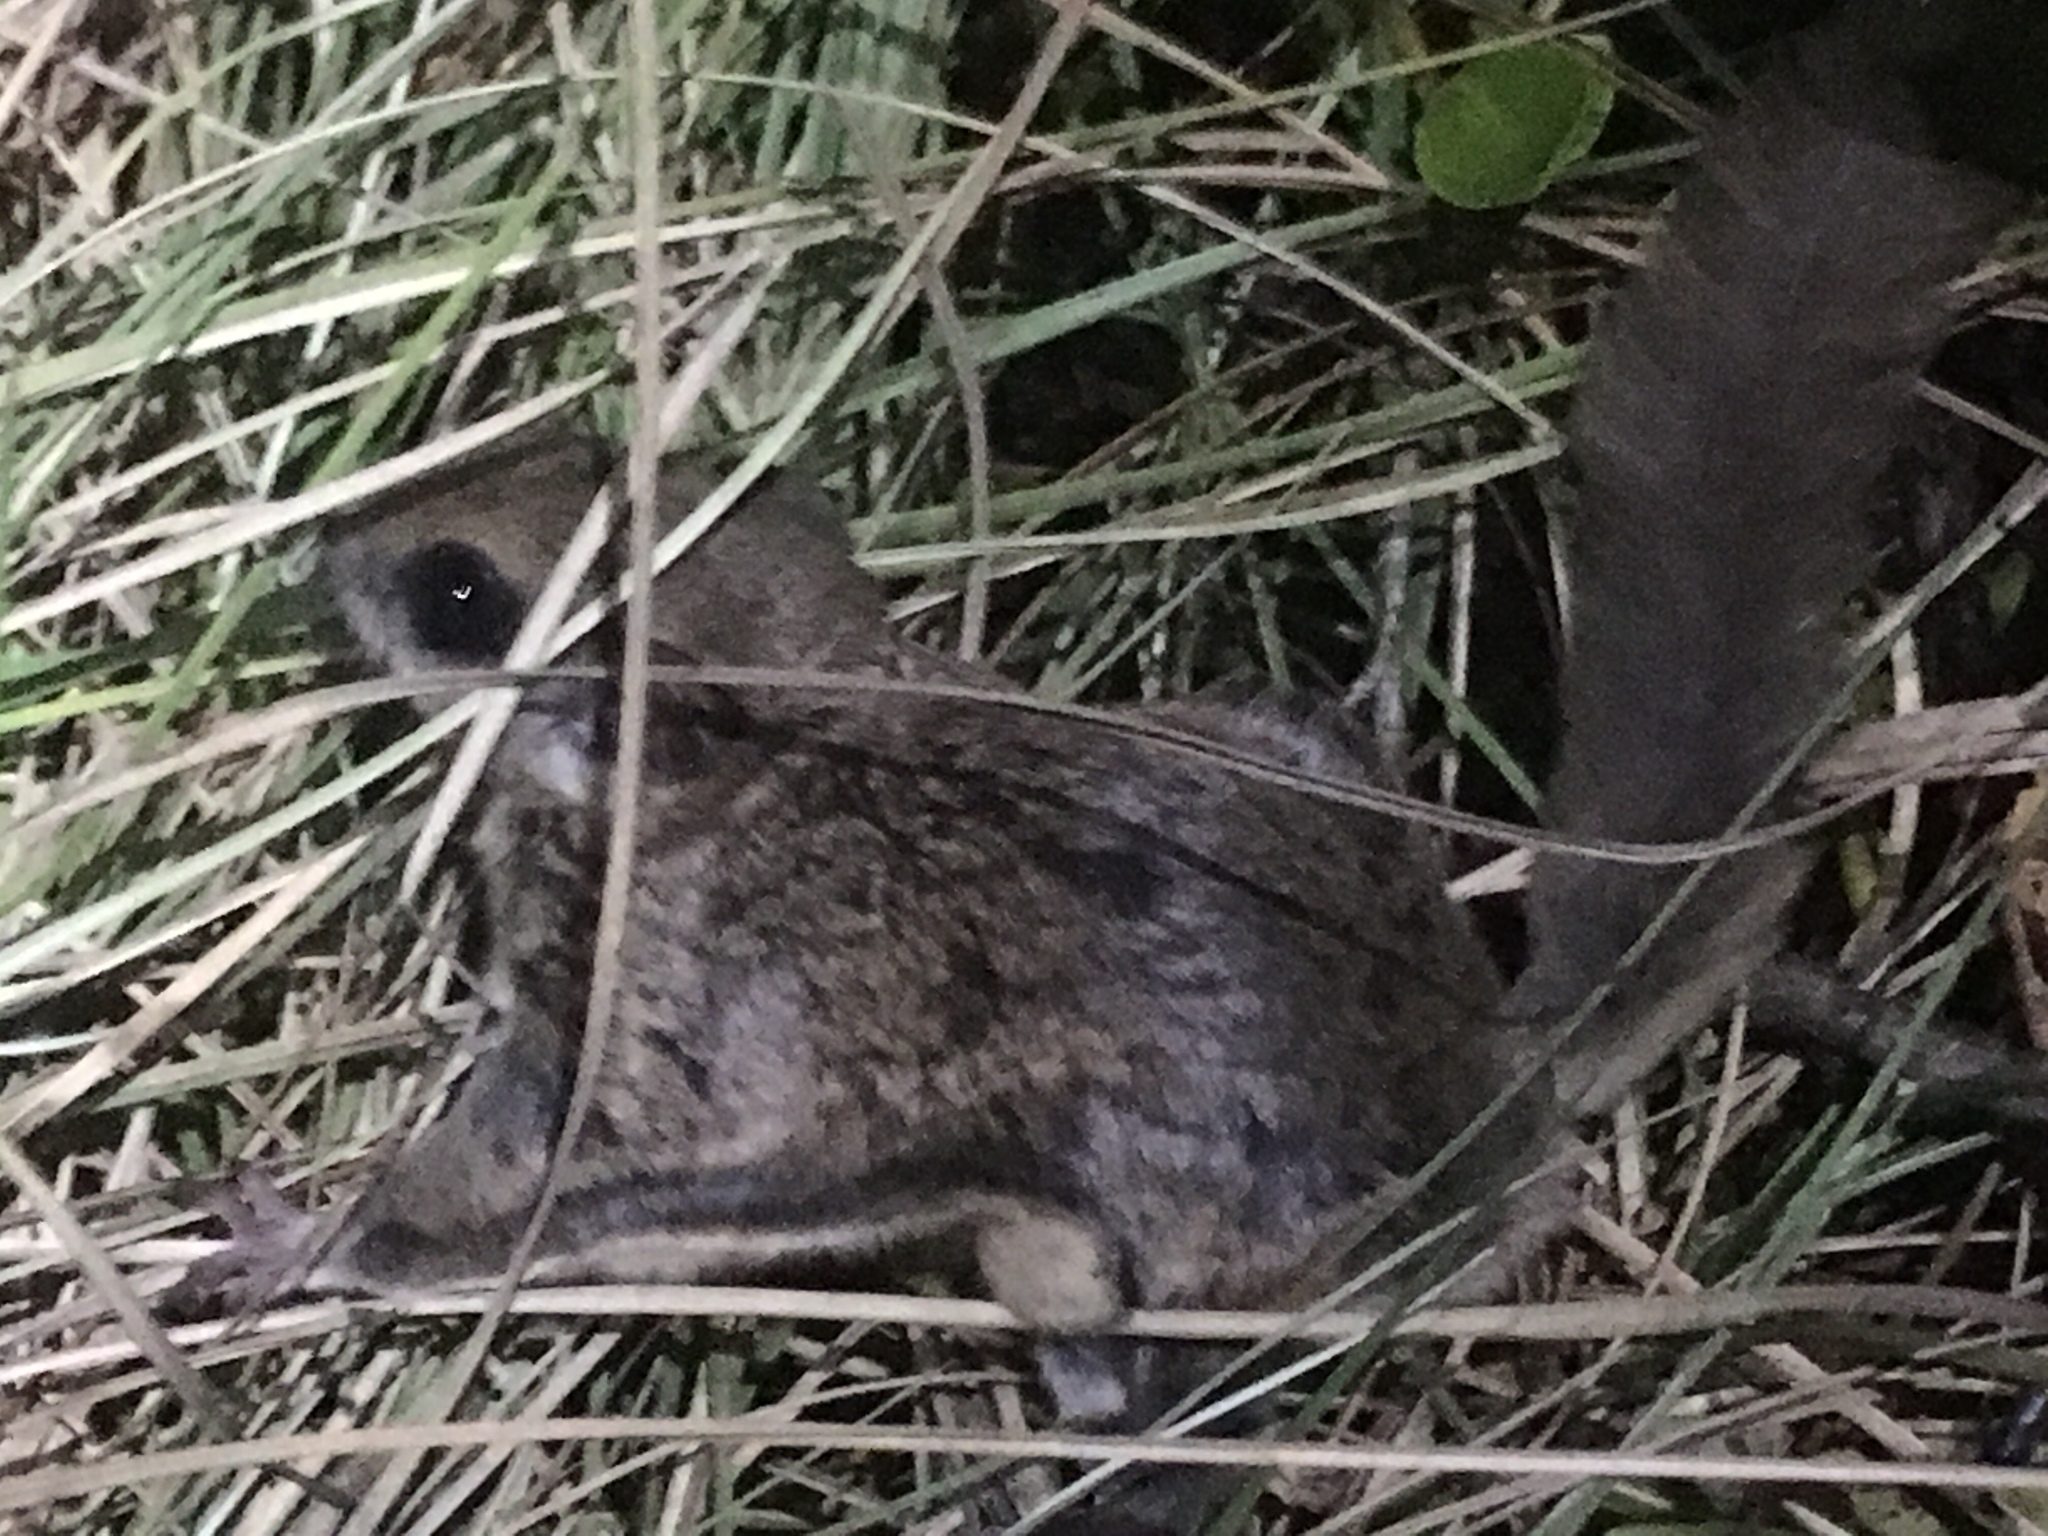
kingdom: Animalia
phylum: Chordata
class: Mammalia
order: Rodentia
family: Sciuridae
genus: Glaucomys
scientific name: Glaucomys volans
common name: Southern flying squirrel
